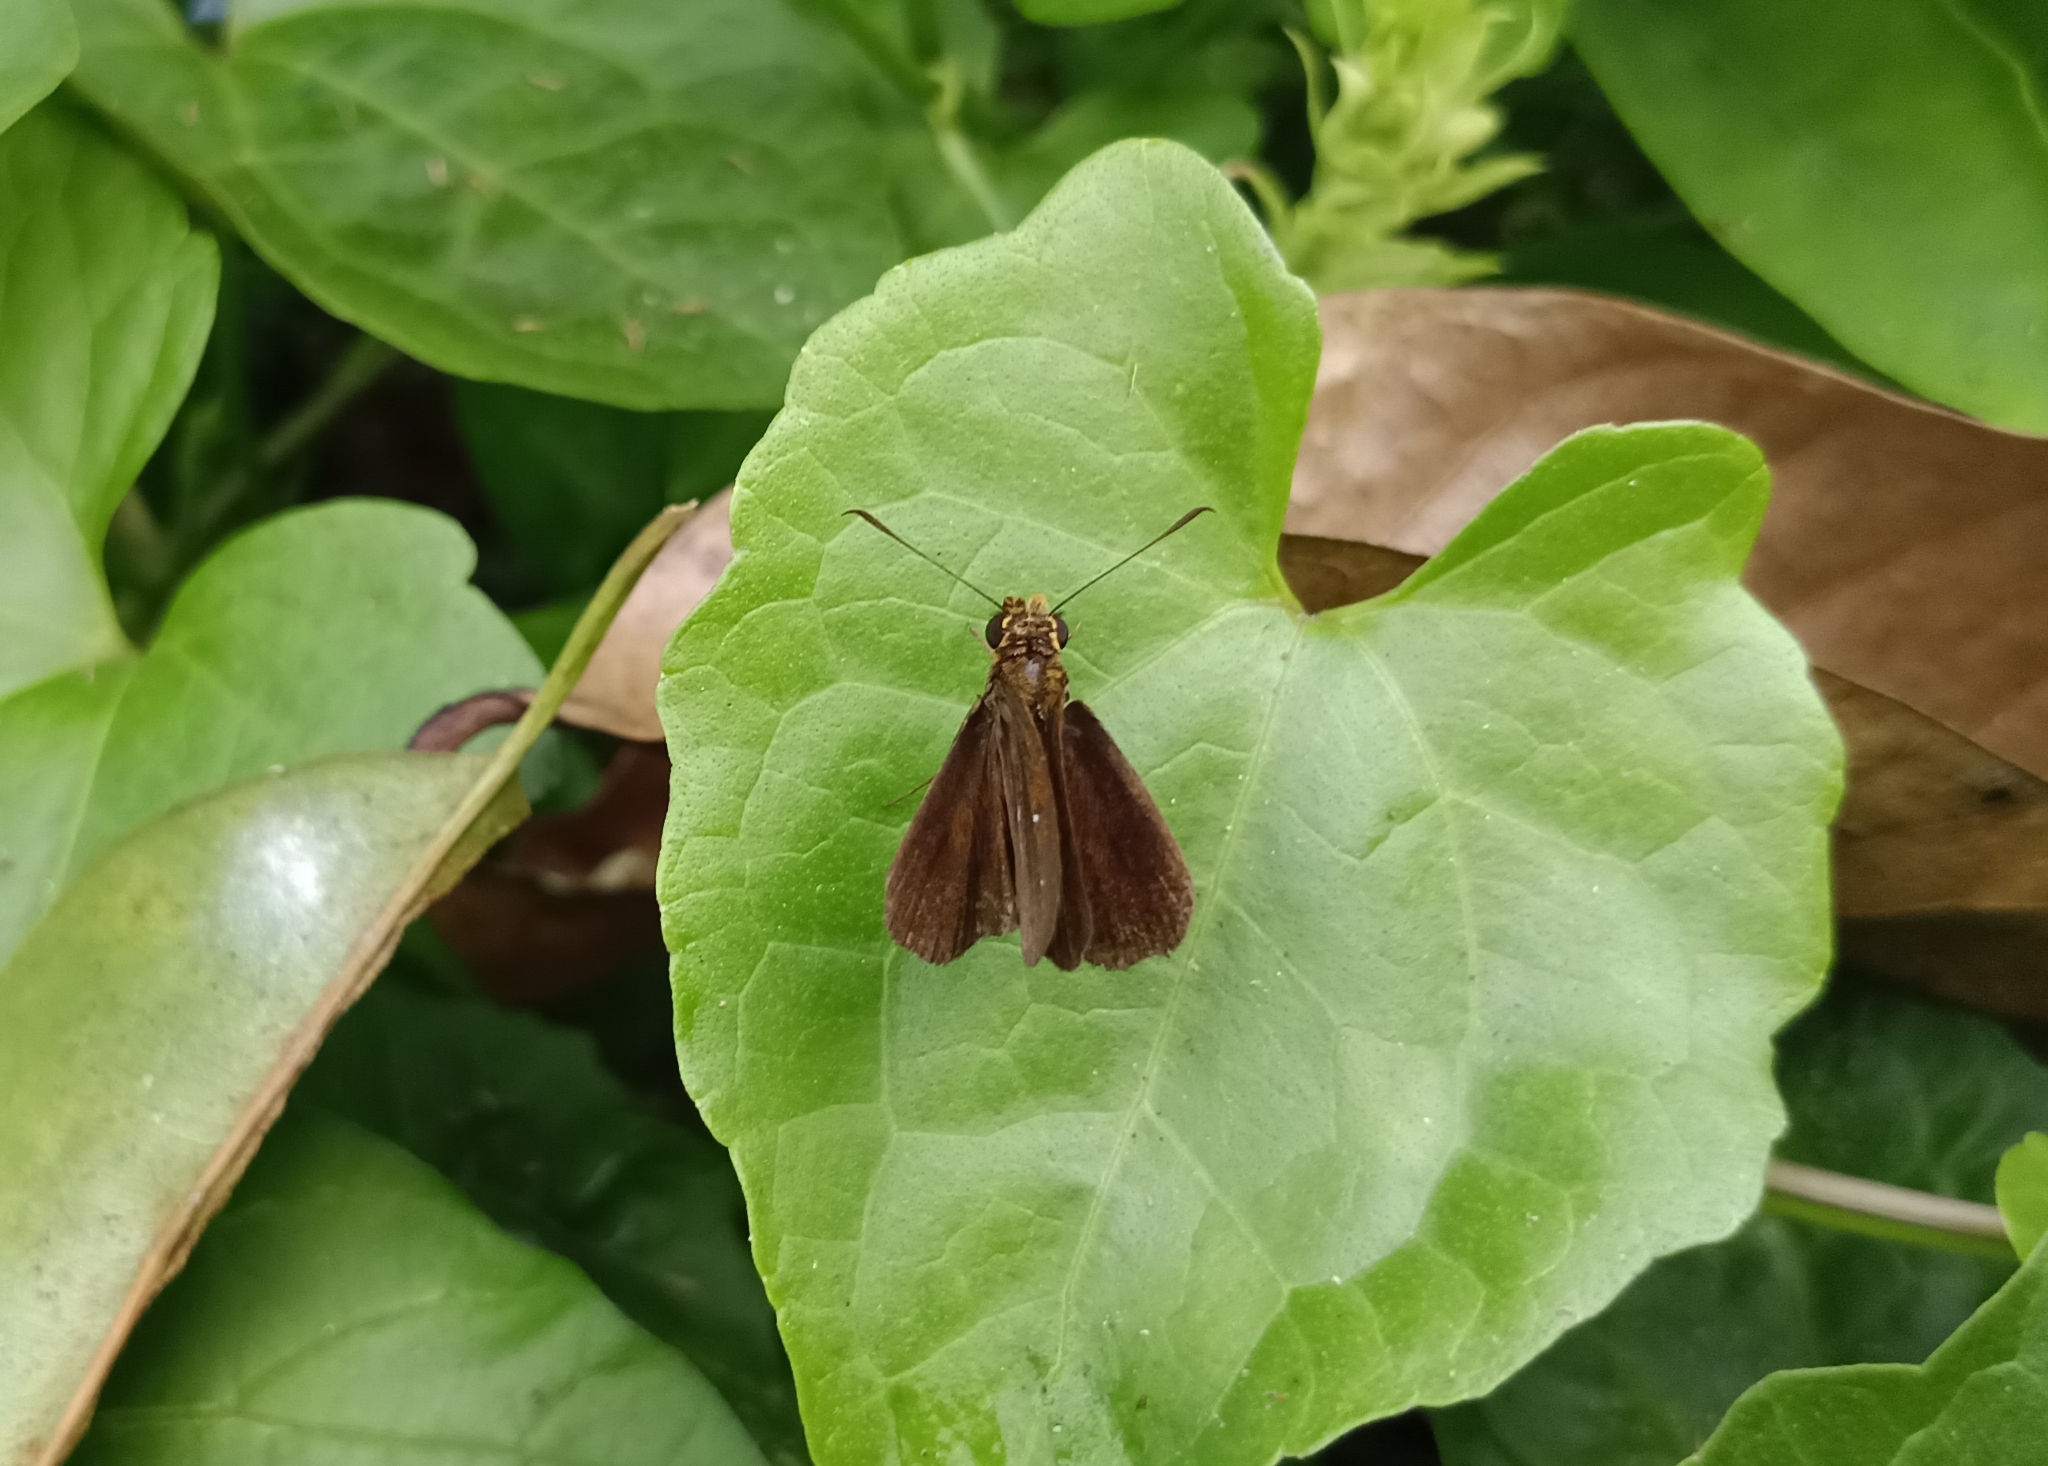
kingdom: Animalia
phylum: Arthropoda
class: Insecta
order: Lepidoptera
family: Hesperiidae
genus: Iambrix
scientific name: Iambrix salsala
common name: Chestnut bob
